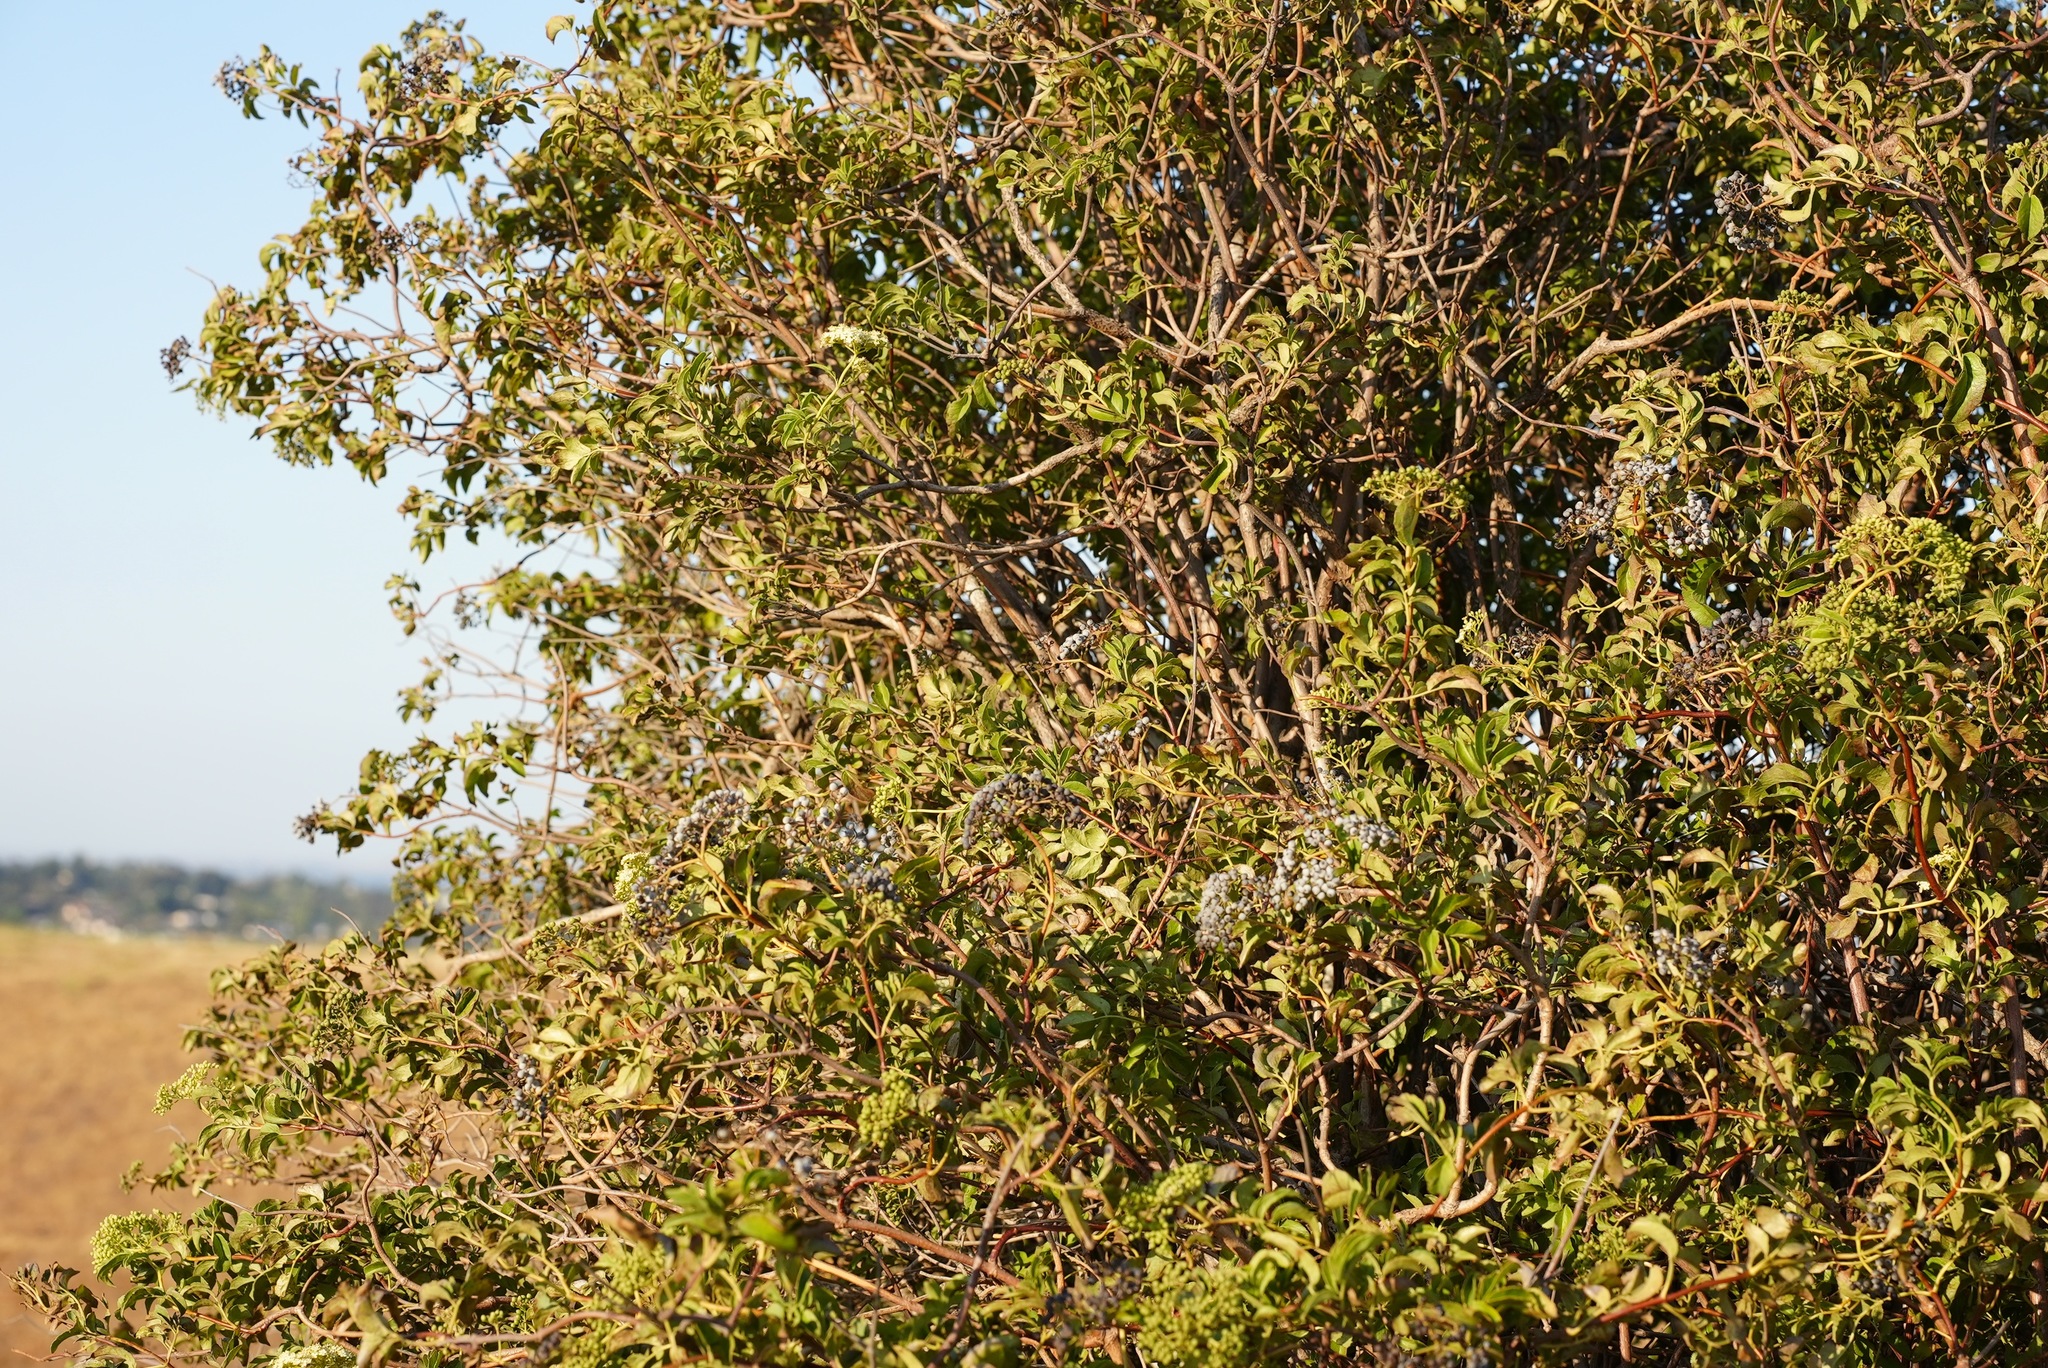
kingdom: Plantae
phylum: Tracheophyta
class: Magnoliopsida
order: Dipsacales
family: Viburnaceae
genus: Sambucus
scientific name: Sambucus cerulea
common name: Blue elder
